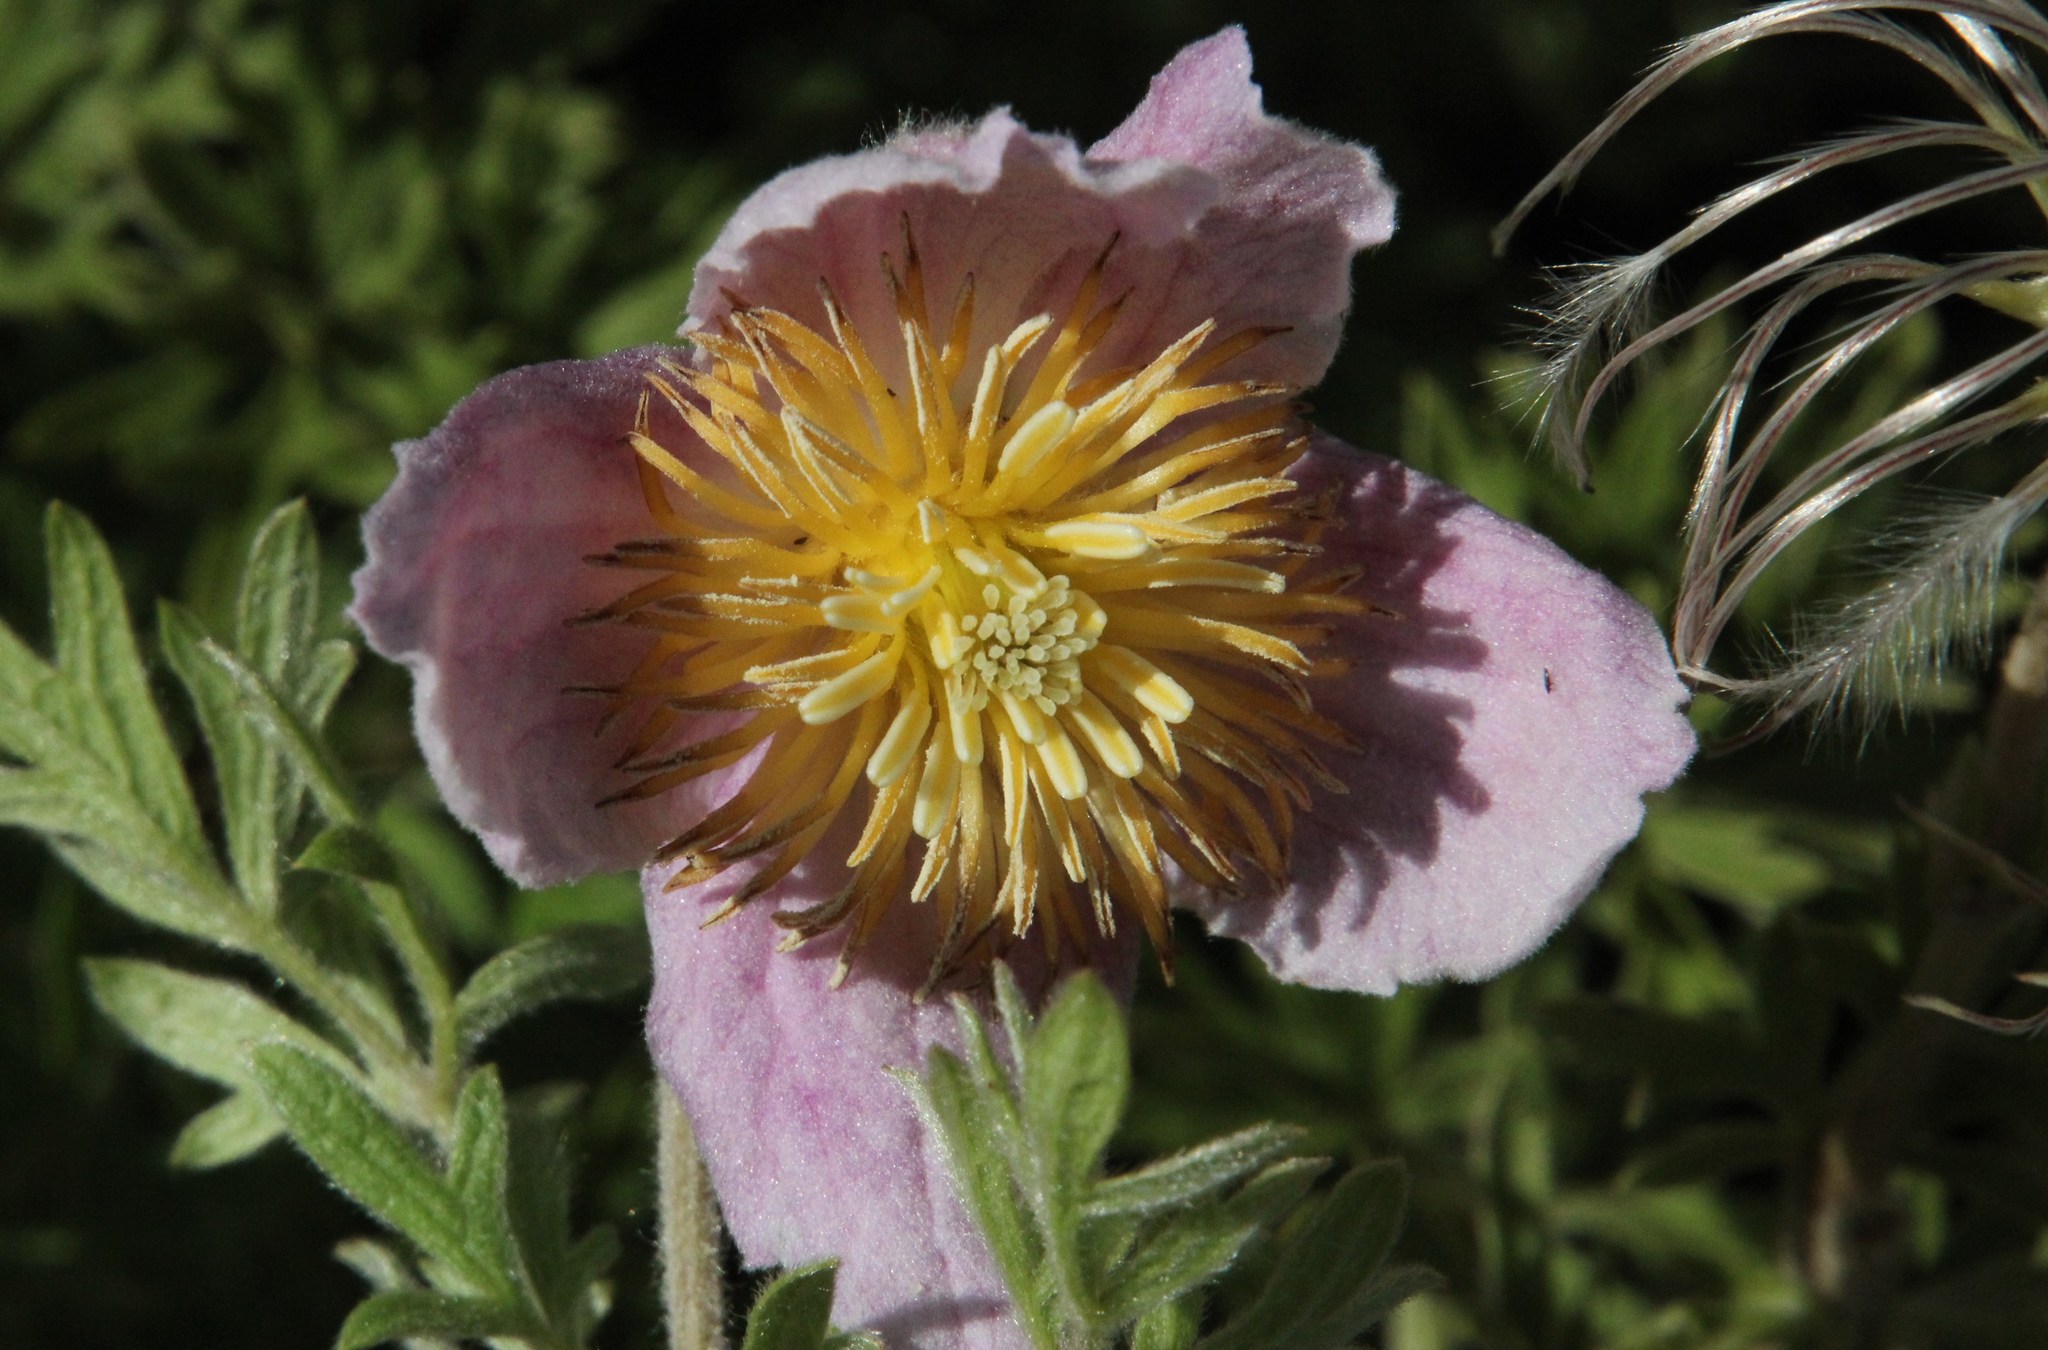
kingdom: Plantae
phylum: Tracheophyta
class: Magnoliopsida
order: Ranunculales
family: Ranunculaceae
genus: Clematis
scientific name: Clematis villosa
